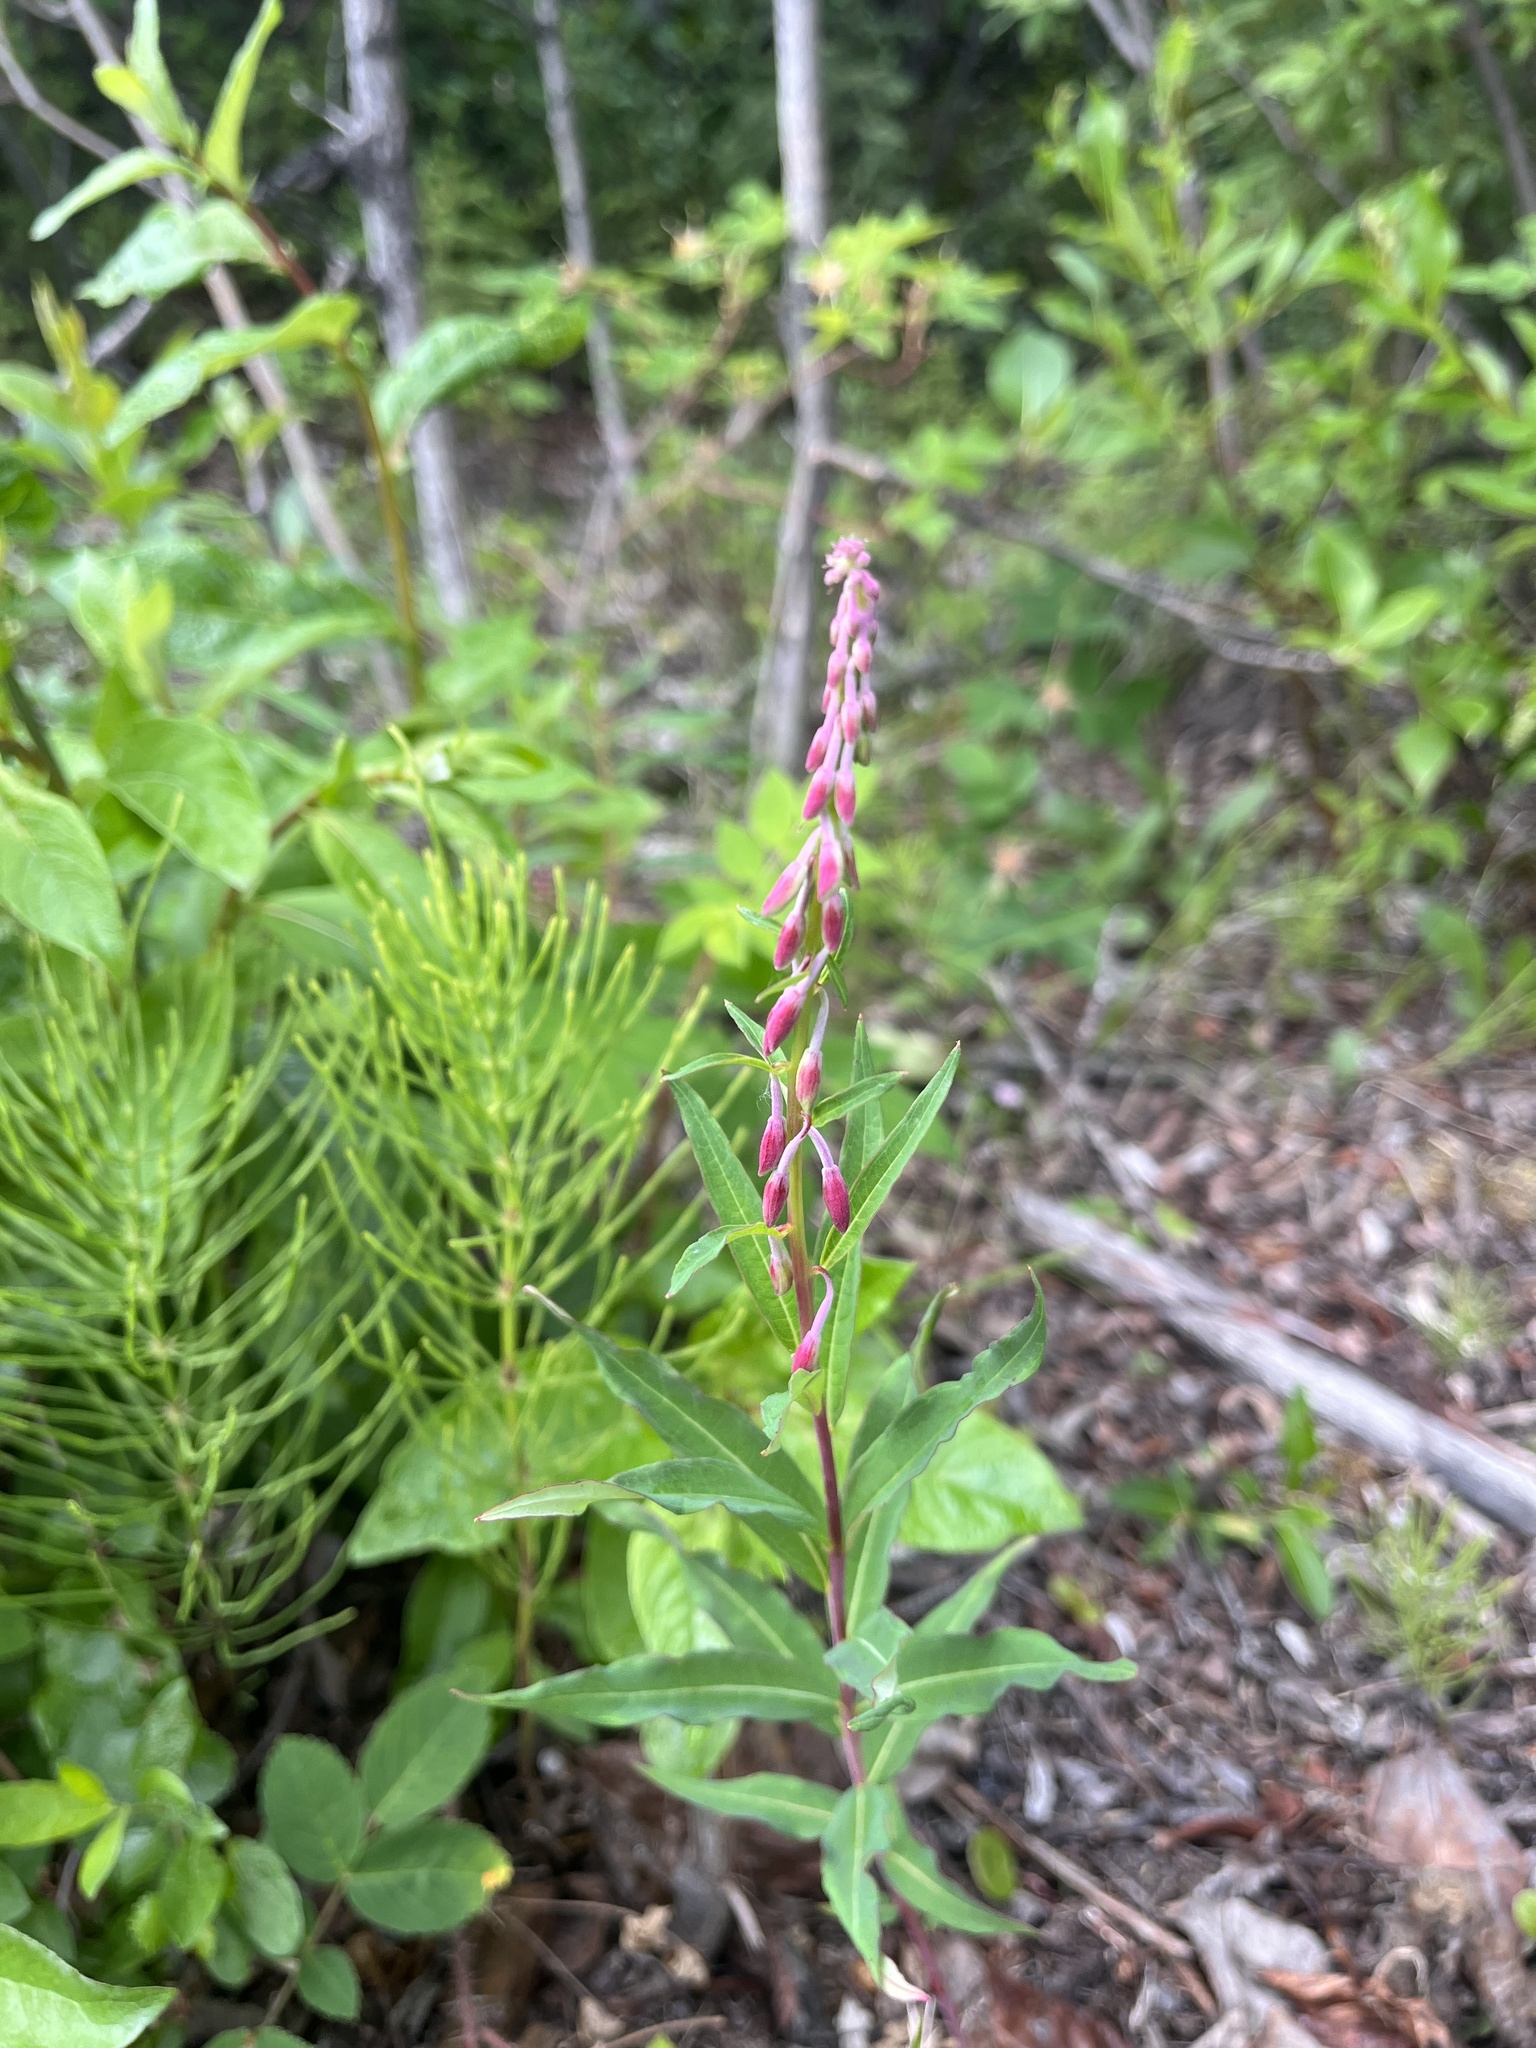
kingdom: Plantae
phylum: Tracheophyta
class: Magnoliopsida
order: Myrtales
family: Onagraceae
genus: Chamaenerion
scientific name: Chamaenerion angustifolium
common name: Fireweed
